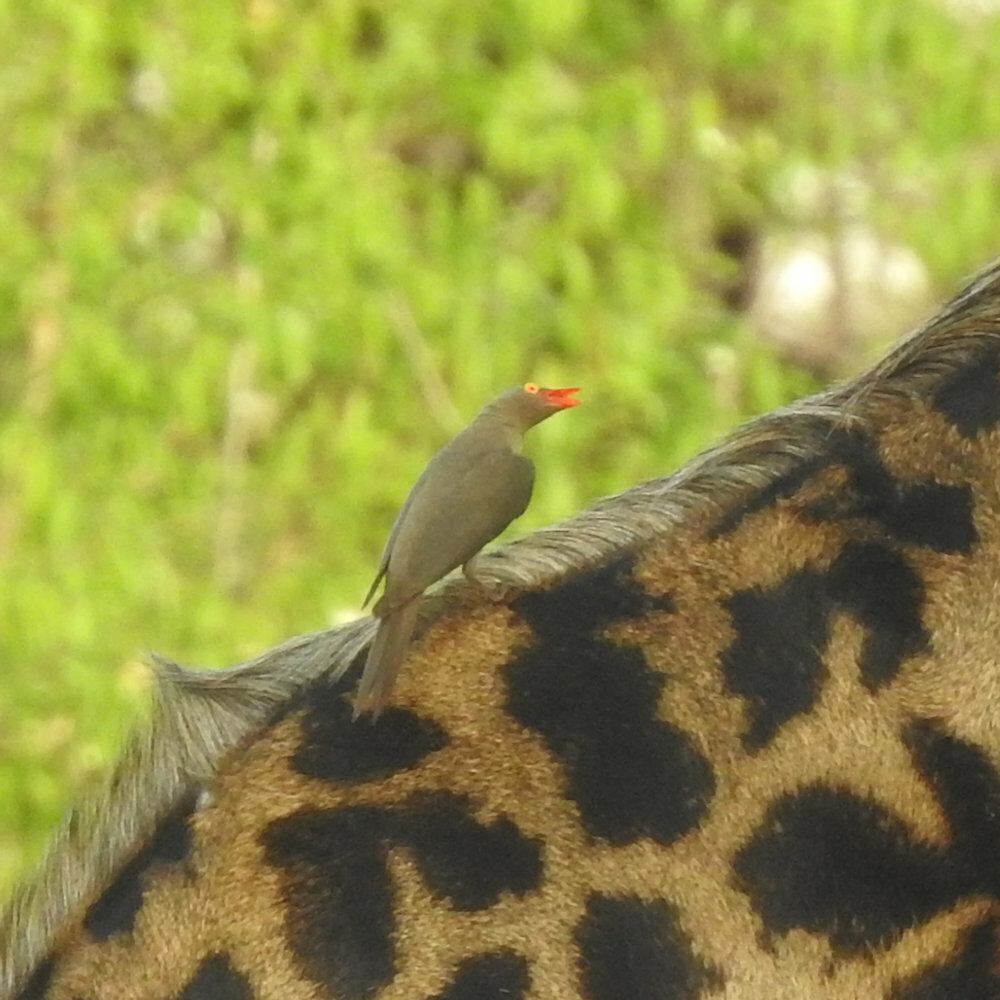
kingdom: Animalia
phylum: Chordata
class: Aves
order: Passeriformes
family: Buphagidae
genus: Buphagus
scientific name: Buphagus erythrorhynchus
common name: Red-billed oxpecker
